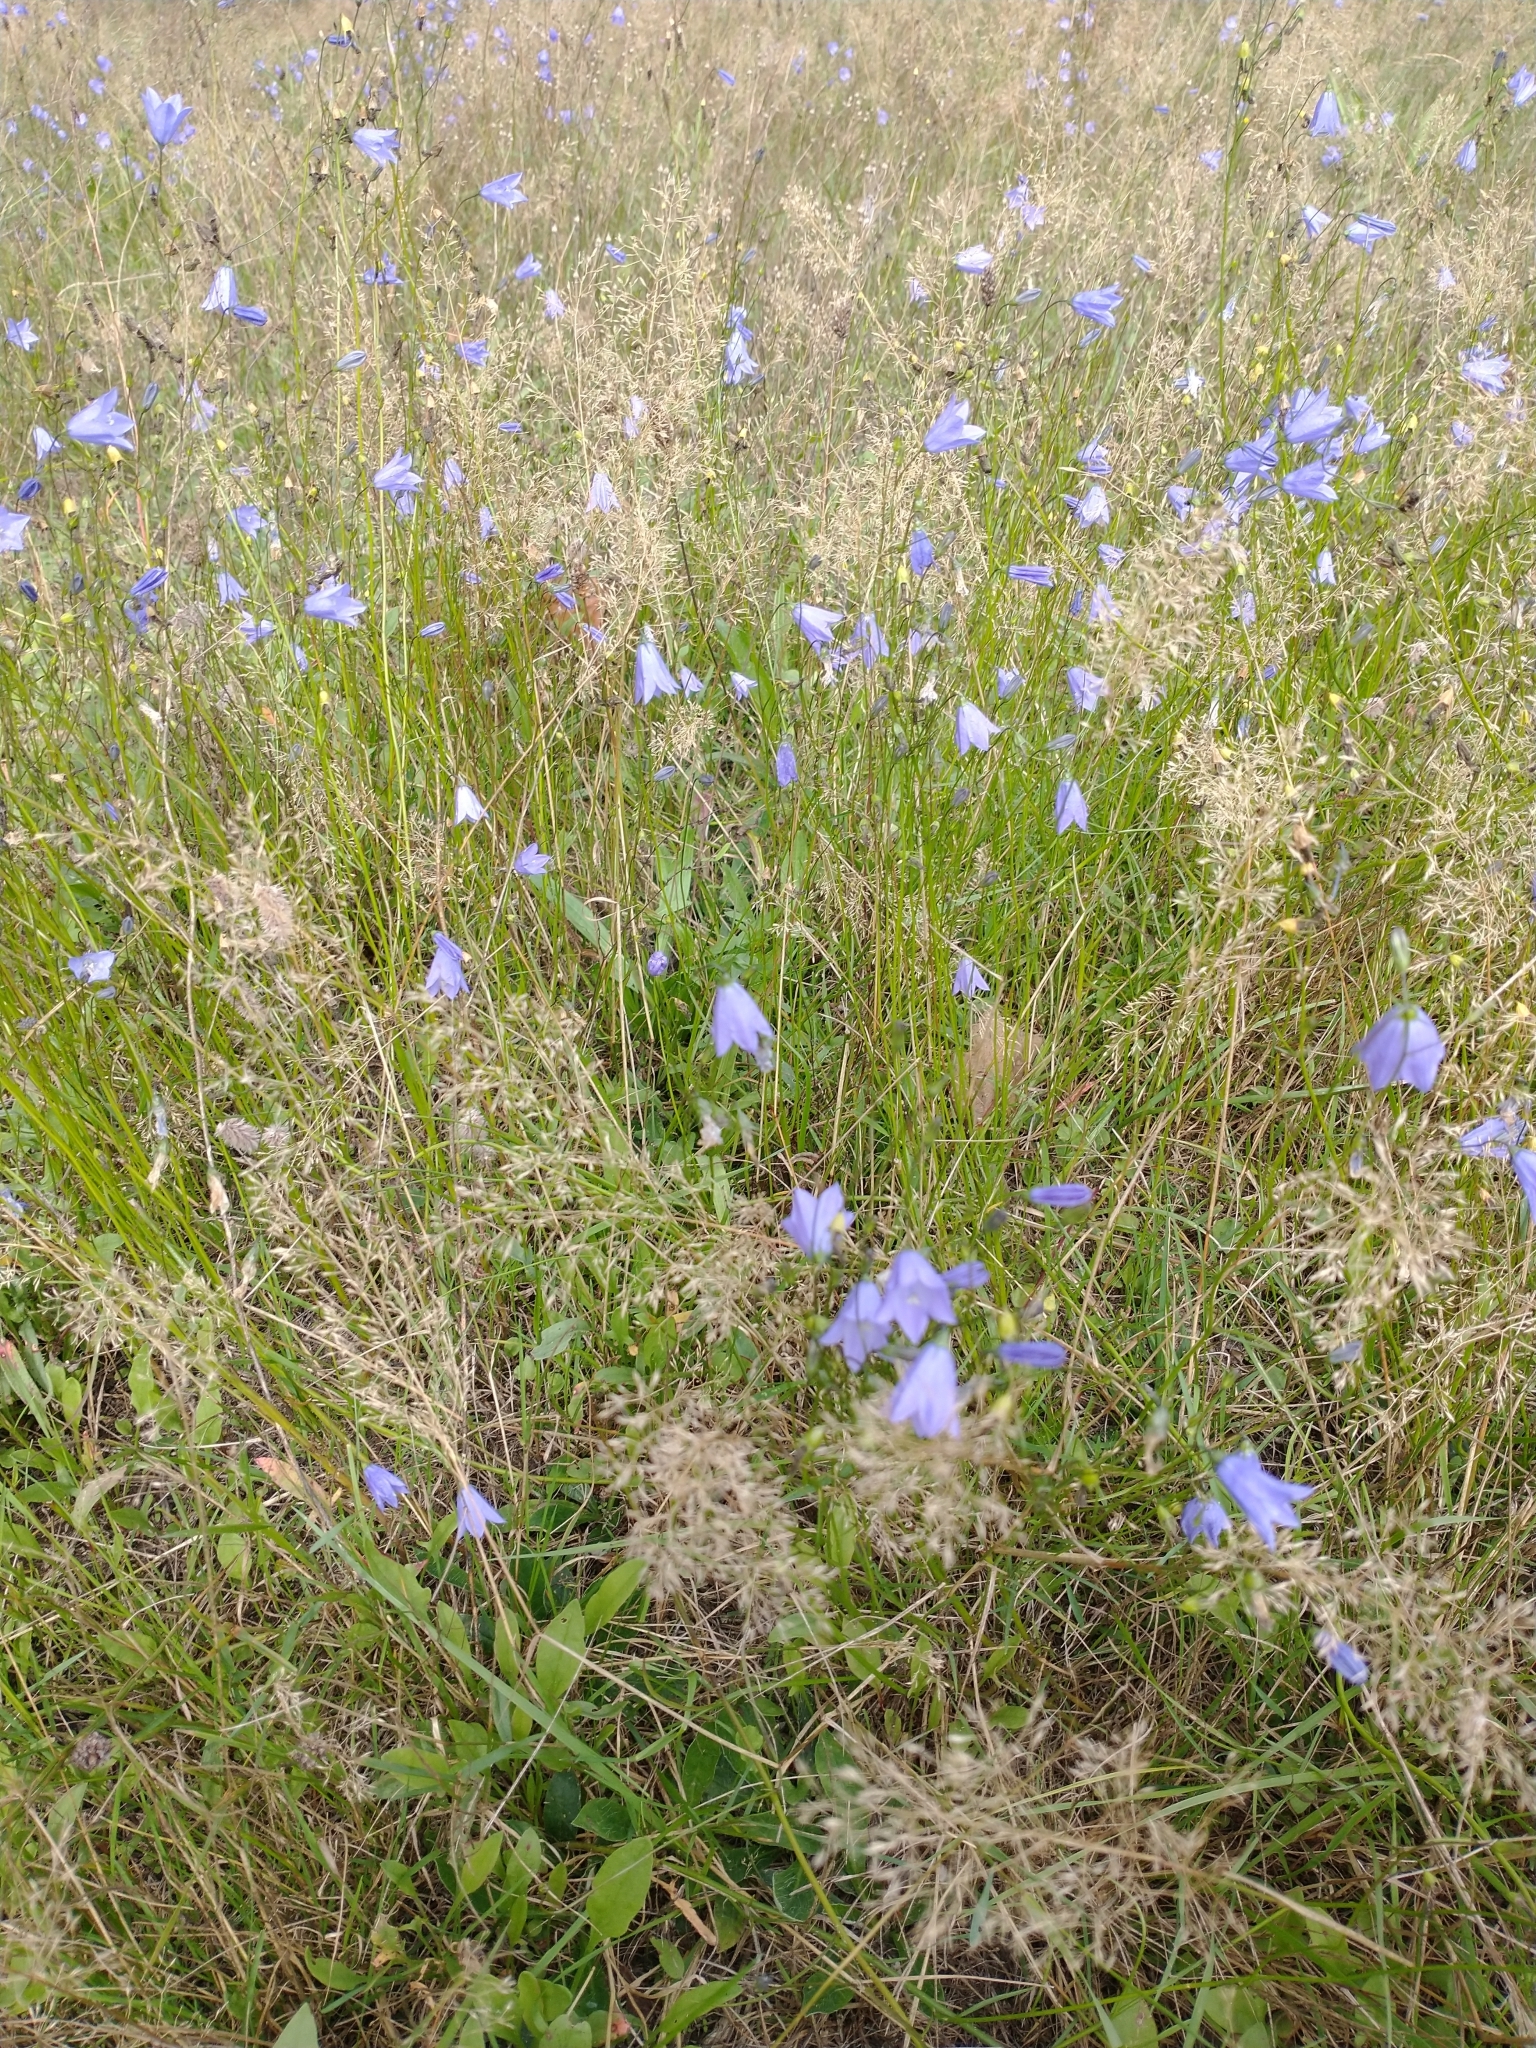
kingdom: Plantae
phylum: Tracheophyta
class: Magnoliopsida
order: Asterales
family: Campanulaceae
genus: Campanula
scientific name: Campanula rotundifolia
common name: Harebell
